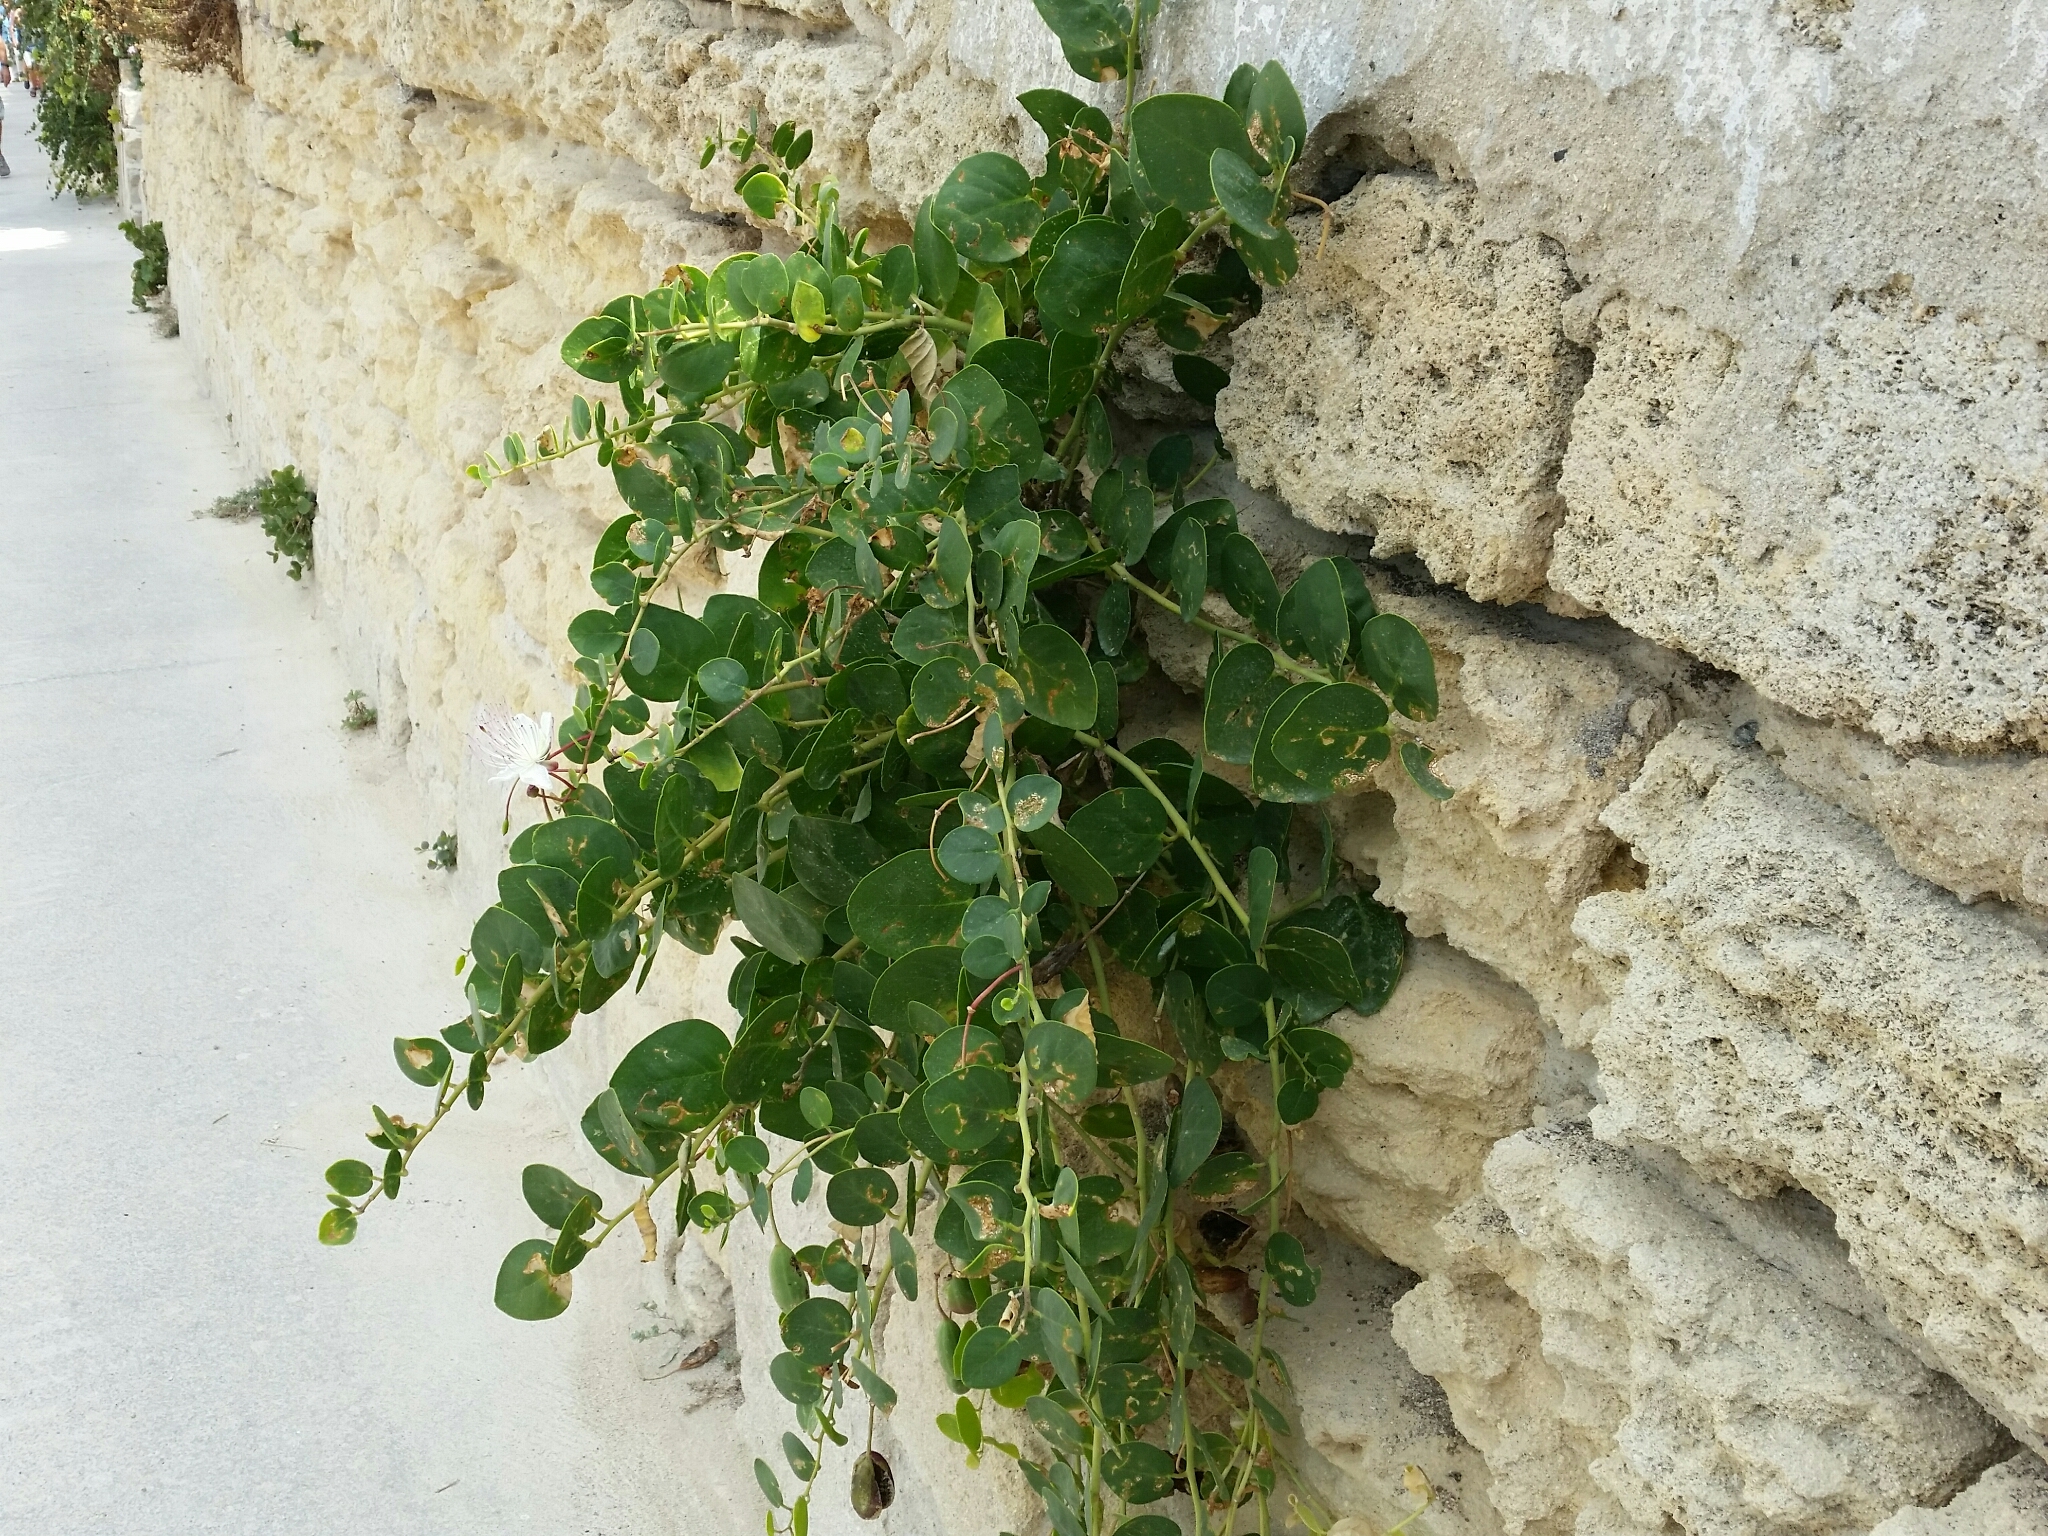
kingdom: Plantae
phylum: Tracheophyta
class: Magnoliopsida
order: Brassicales
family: Capparaceae
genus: Capparis
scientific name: Capparis spinosa
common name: Caper
